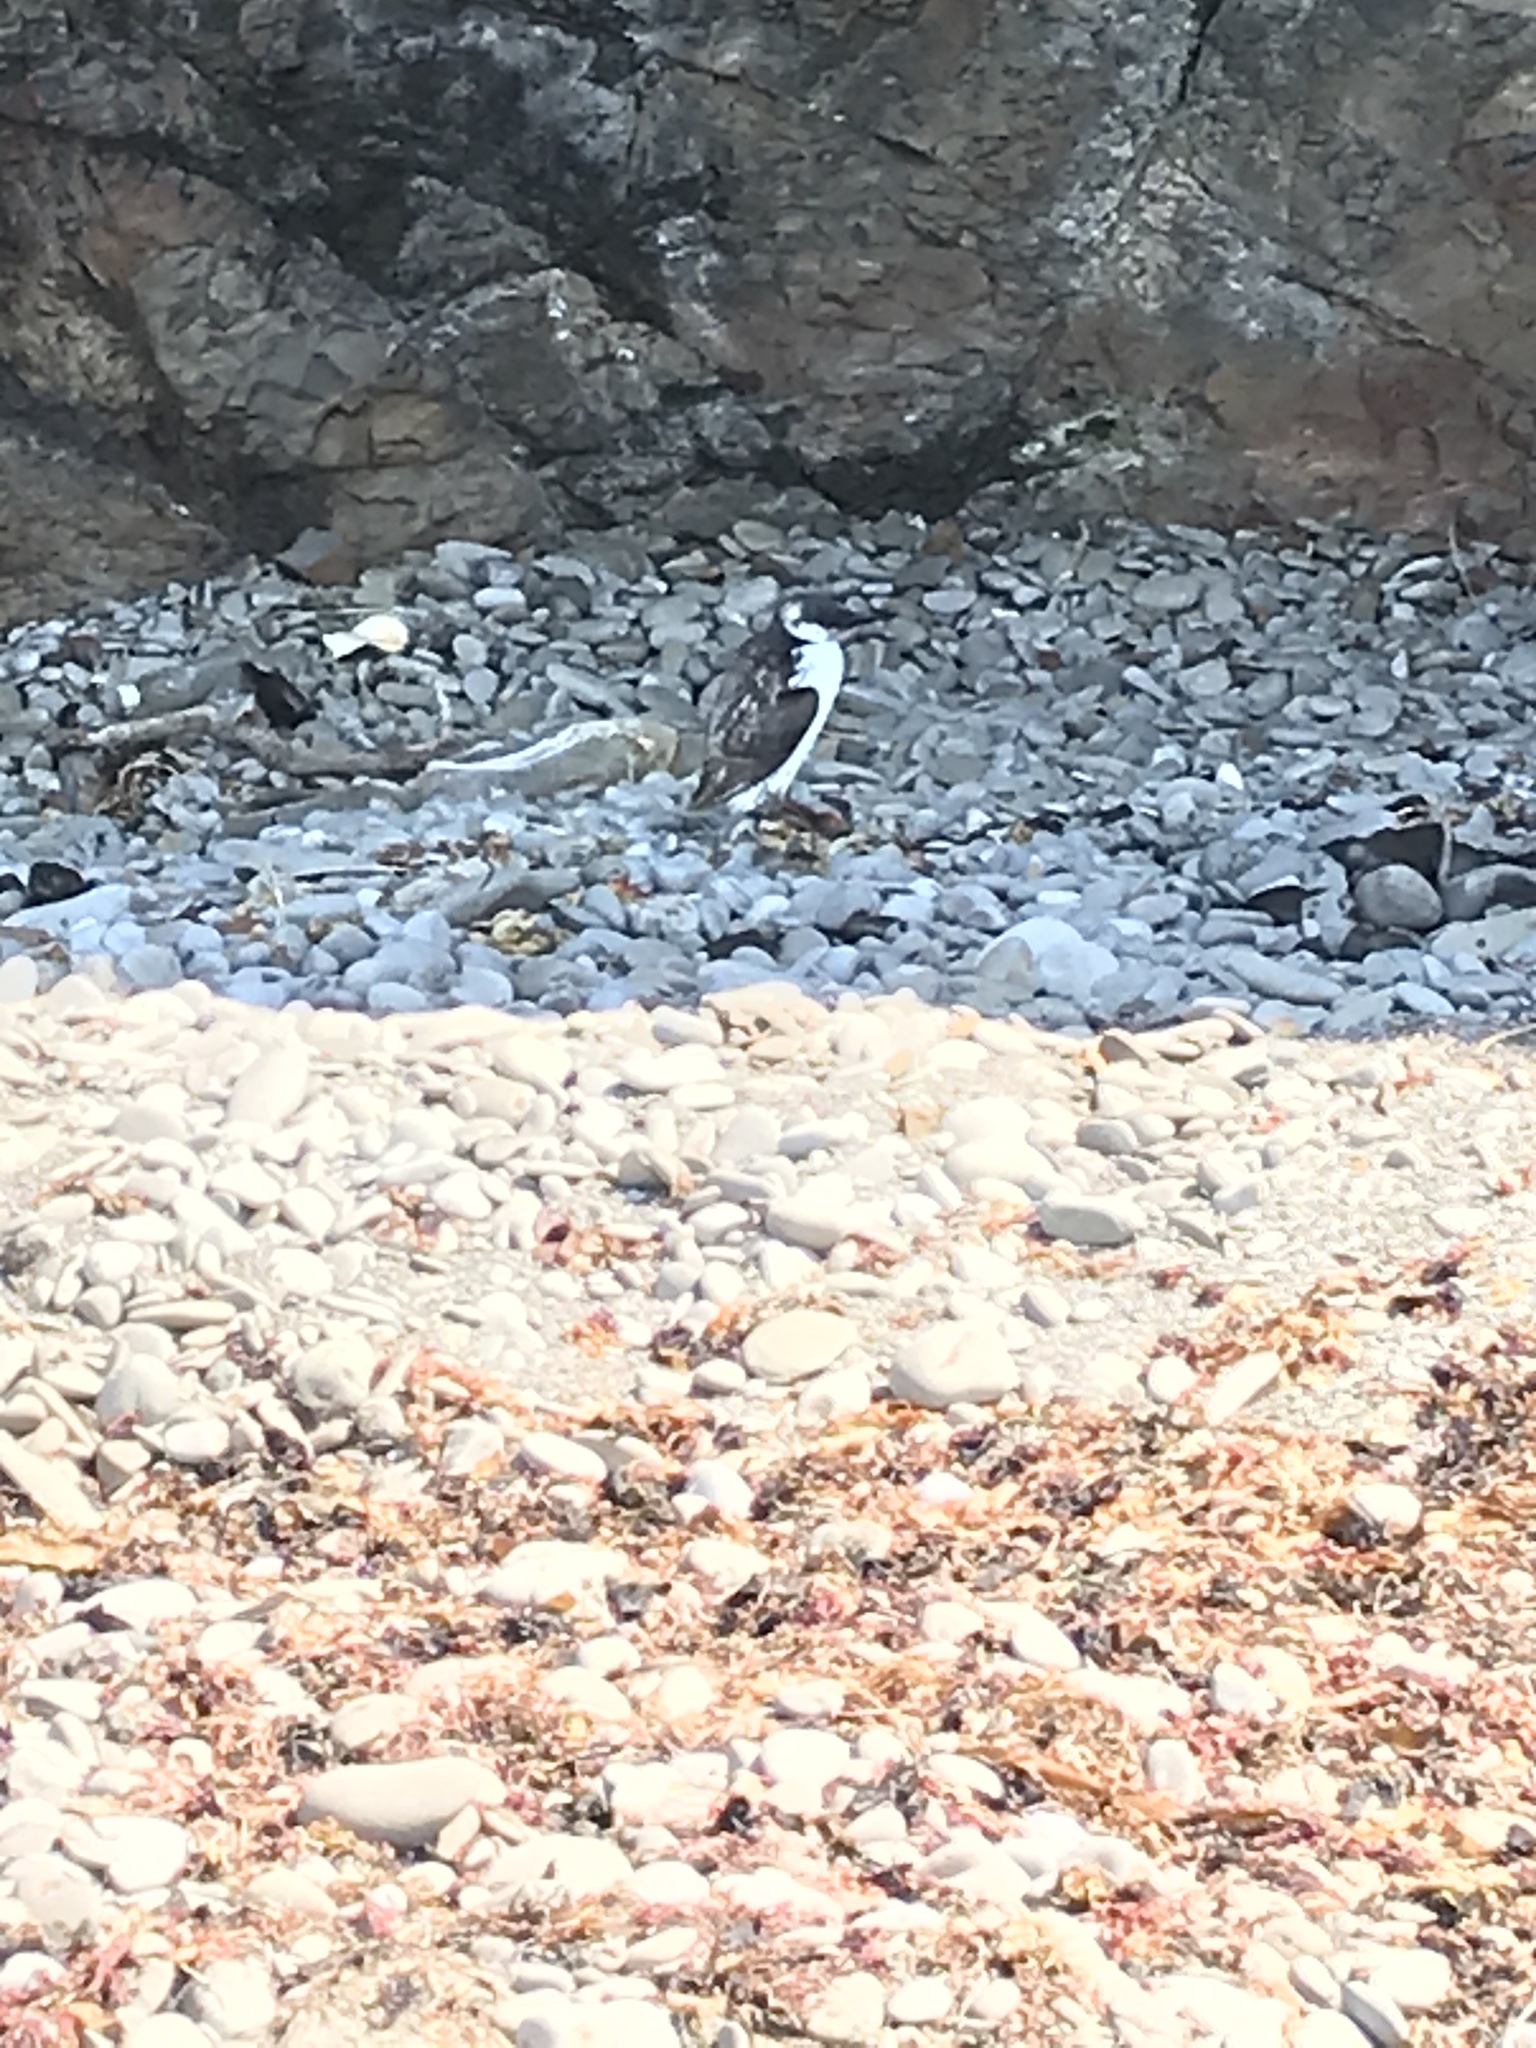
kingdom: Animalia
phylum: Chordata
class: Aves
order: Charadriiformes
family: Alcidae
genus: Uria
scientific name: Uria aalge
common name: Common murre
